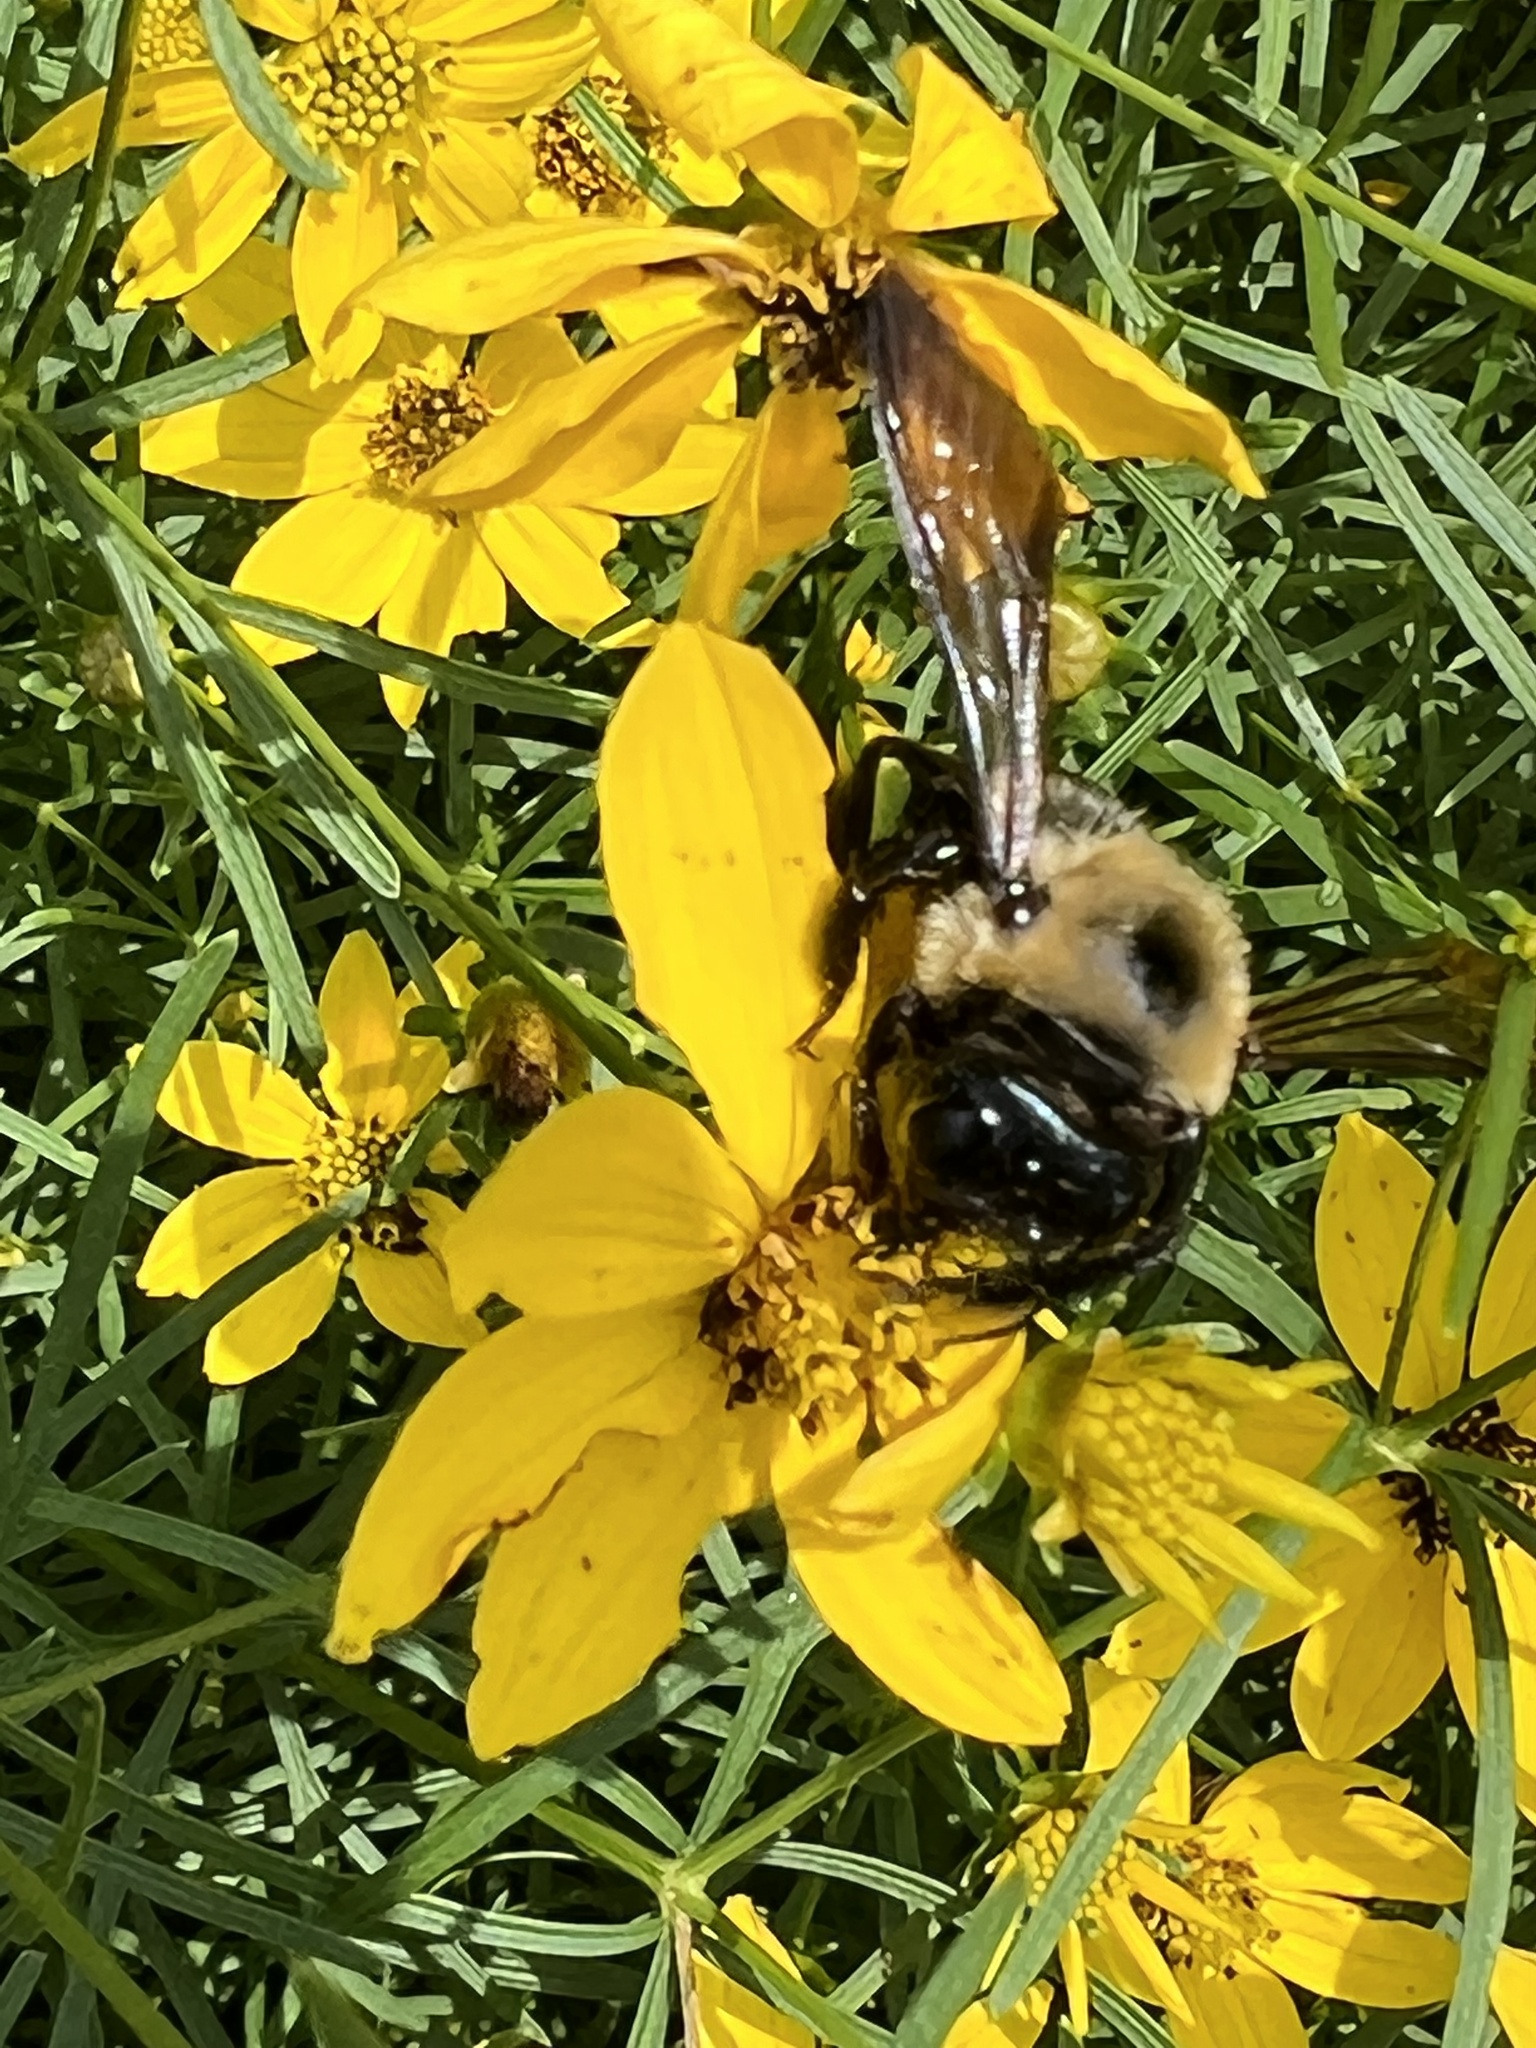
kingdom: Animalia
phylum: Arthropoda
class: Insecta
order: Hymenoptera
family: Apidae
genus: Xylocopa
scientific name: Xylocopa virginica
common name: Carpenter bee
